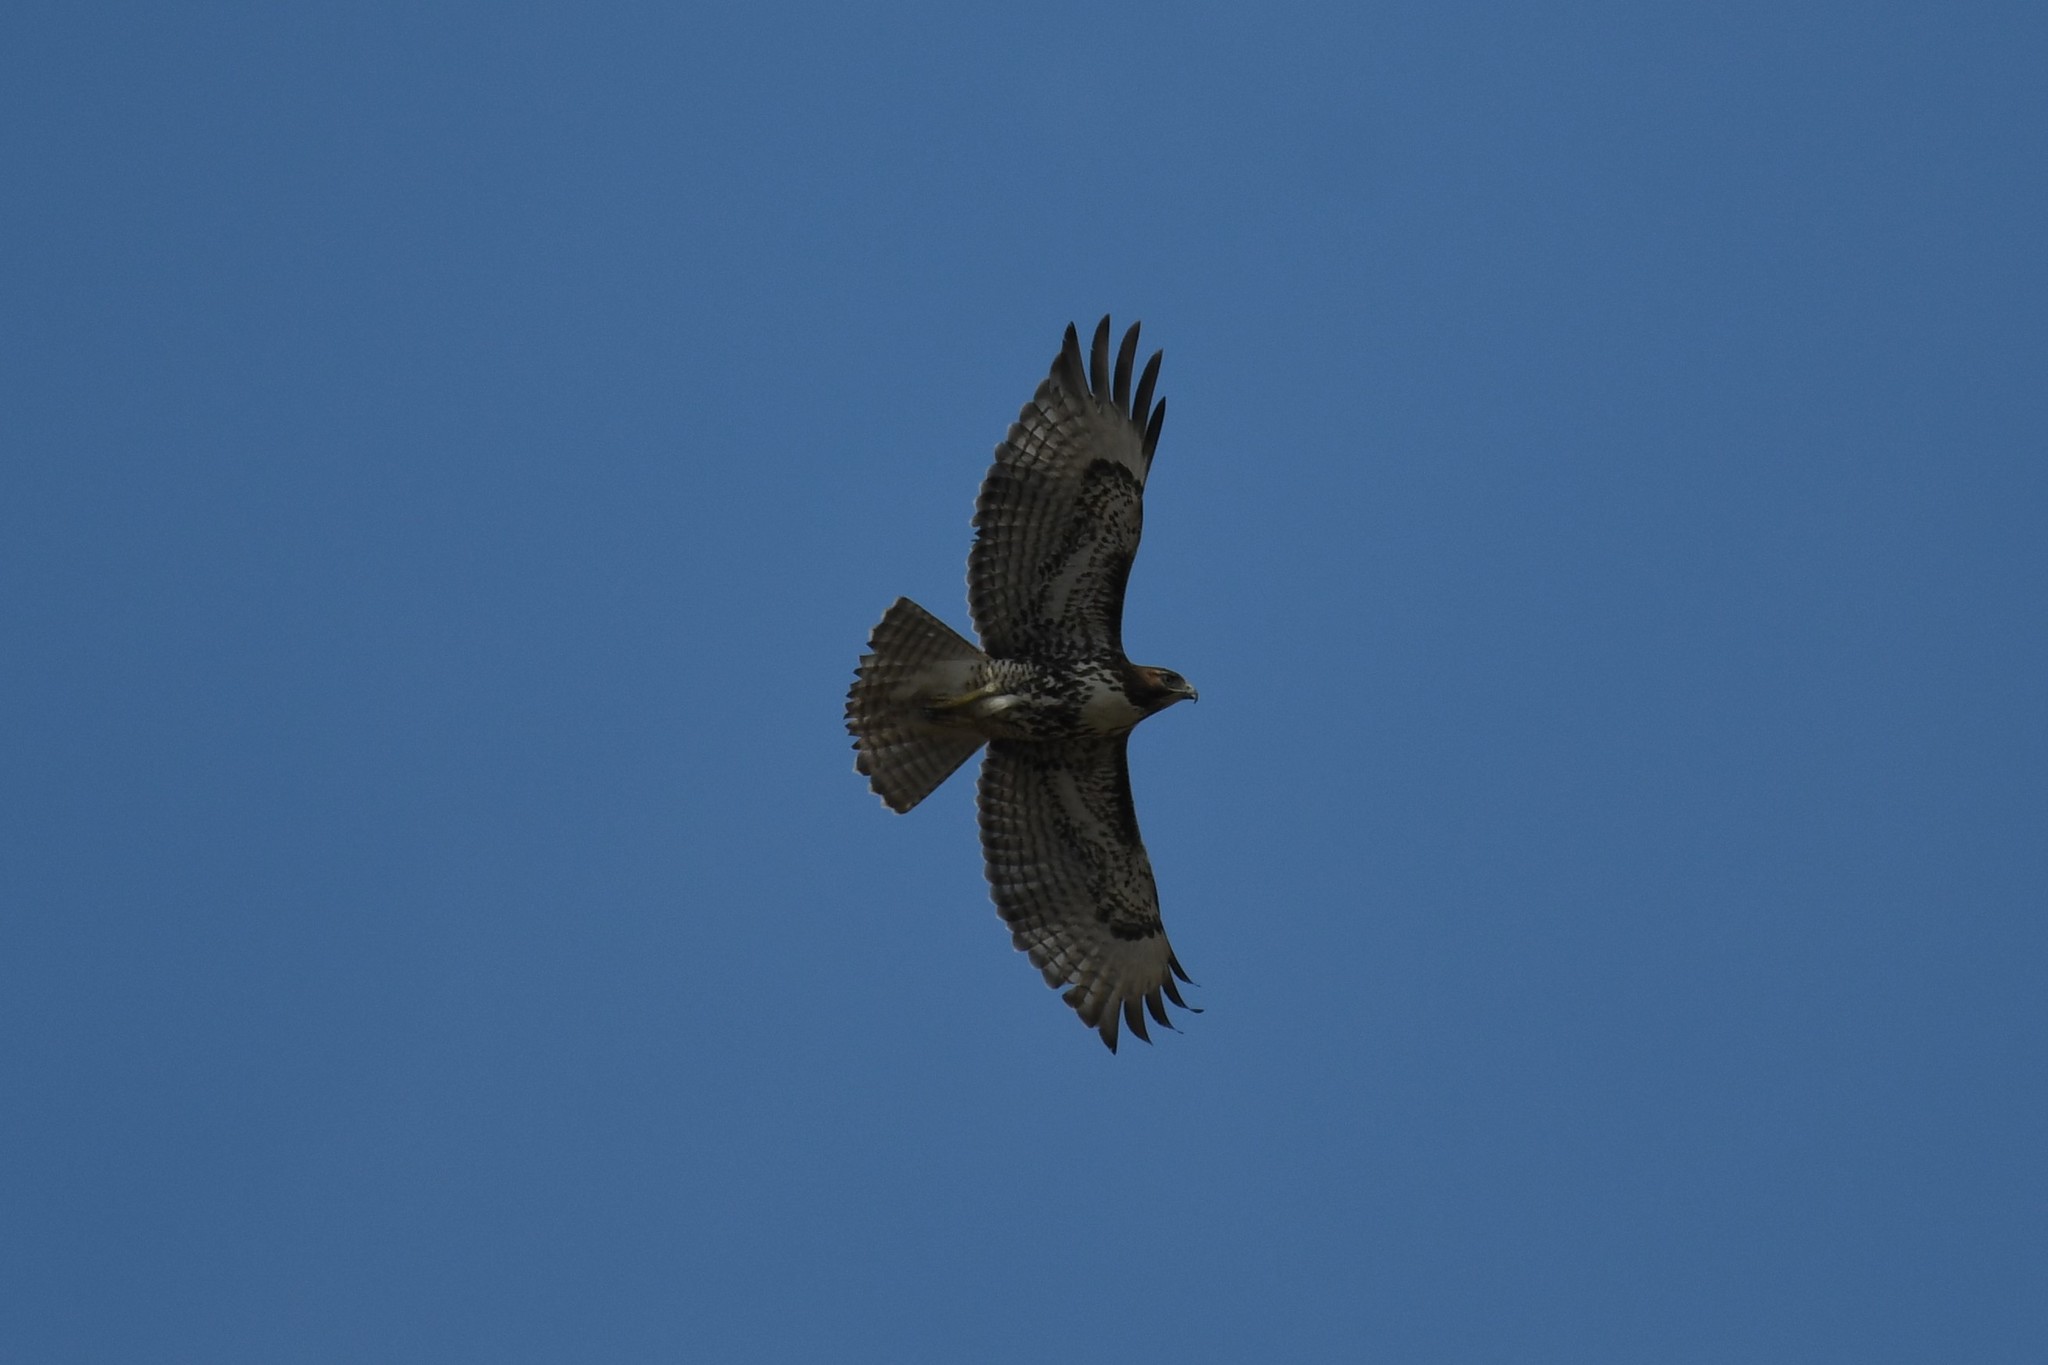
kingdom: Animalia
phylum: Chordata
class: Aves
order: Accipitriformes
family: Accipitridae
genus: Buteo
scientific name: Buteo jamaicensis
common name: Red-tailed hawk
